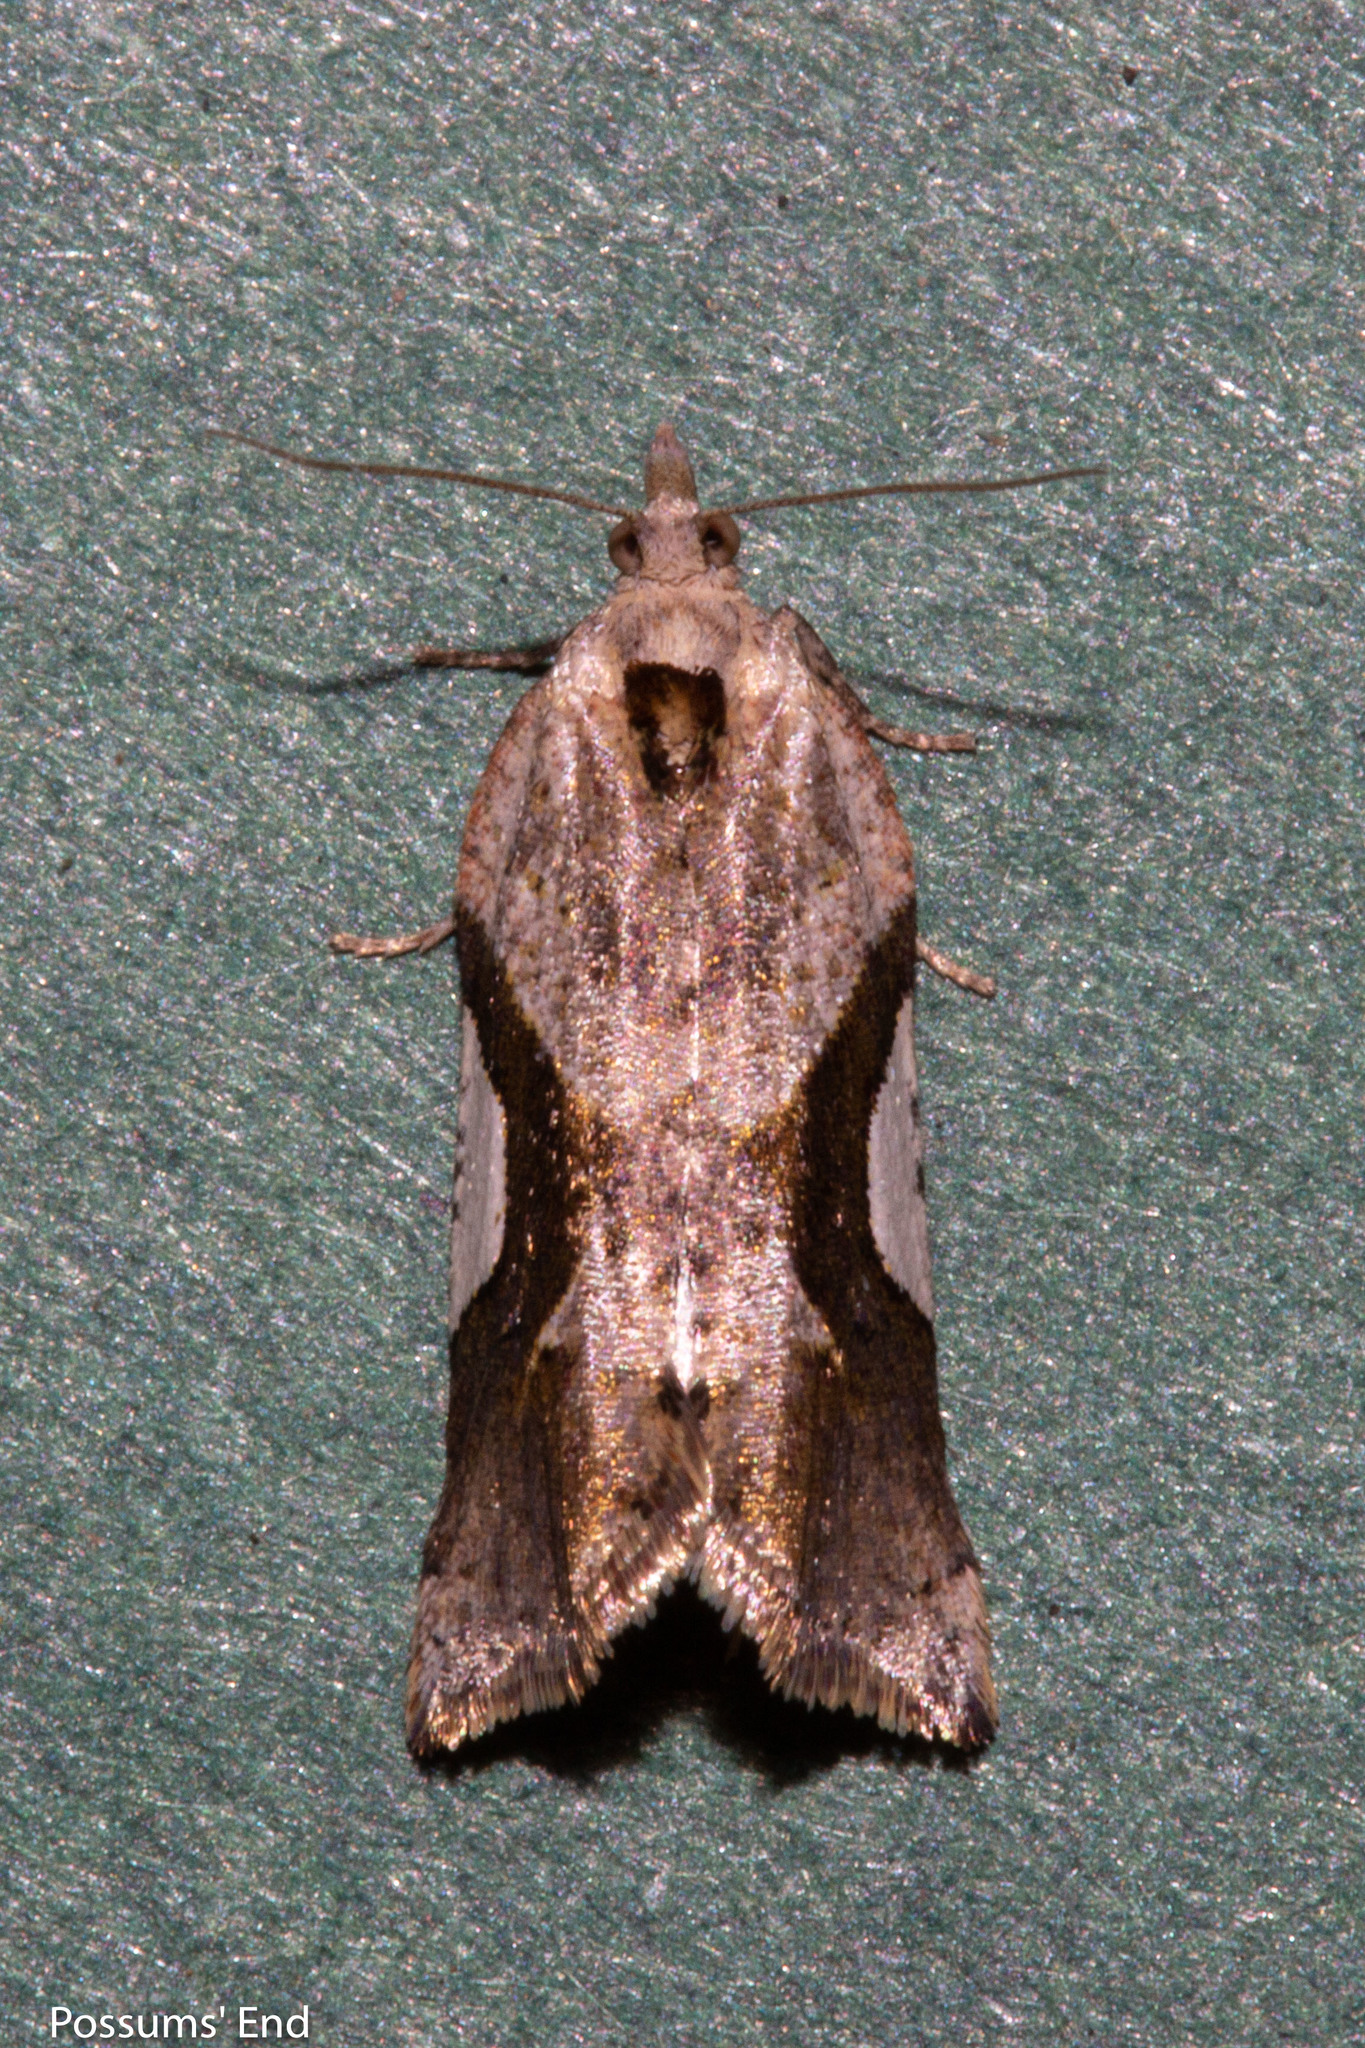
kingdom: Animalia
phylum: Arthropoda
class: Insecta
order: Lepidoptera
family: Tortricidae
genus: Pyrgotis
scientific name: Pyrgotis plagiatana
